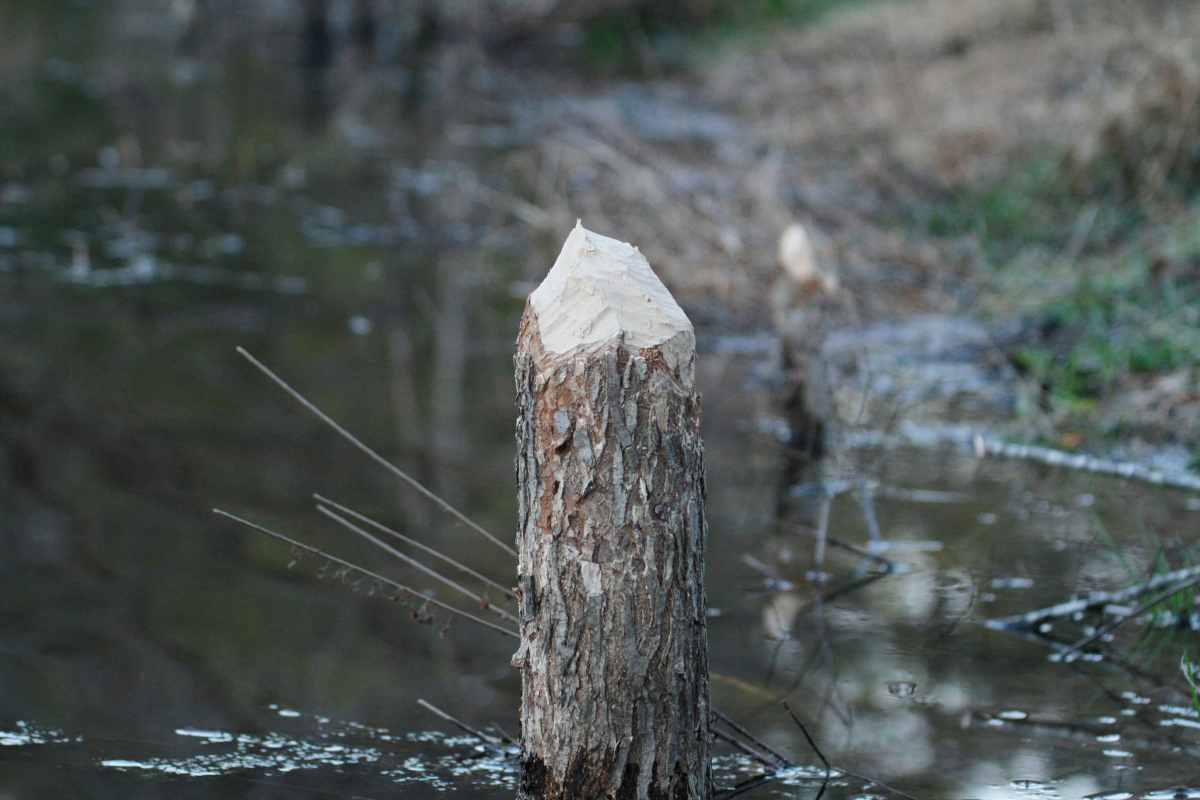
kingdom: Animalia
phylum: Chordata
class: Mammalia
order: Rodentia
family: Castoridae
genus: Castor
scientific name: Castor canadensis
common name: American beaver
